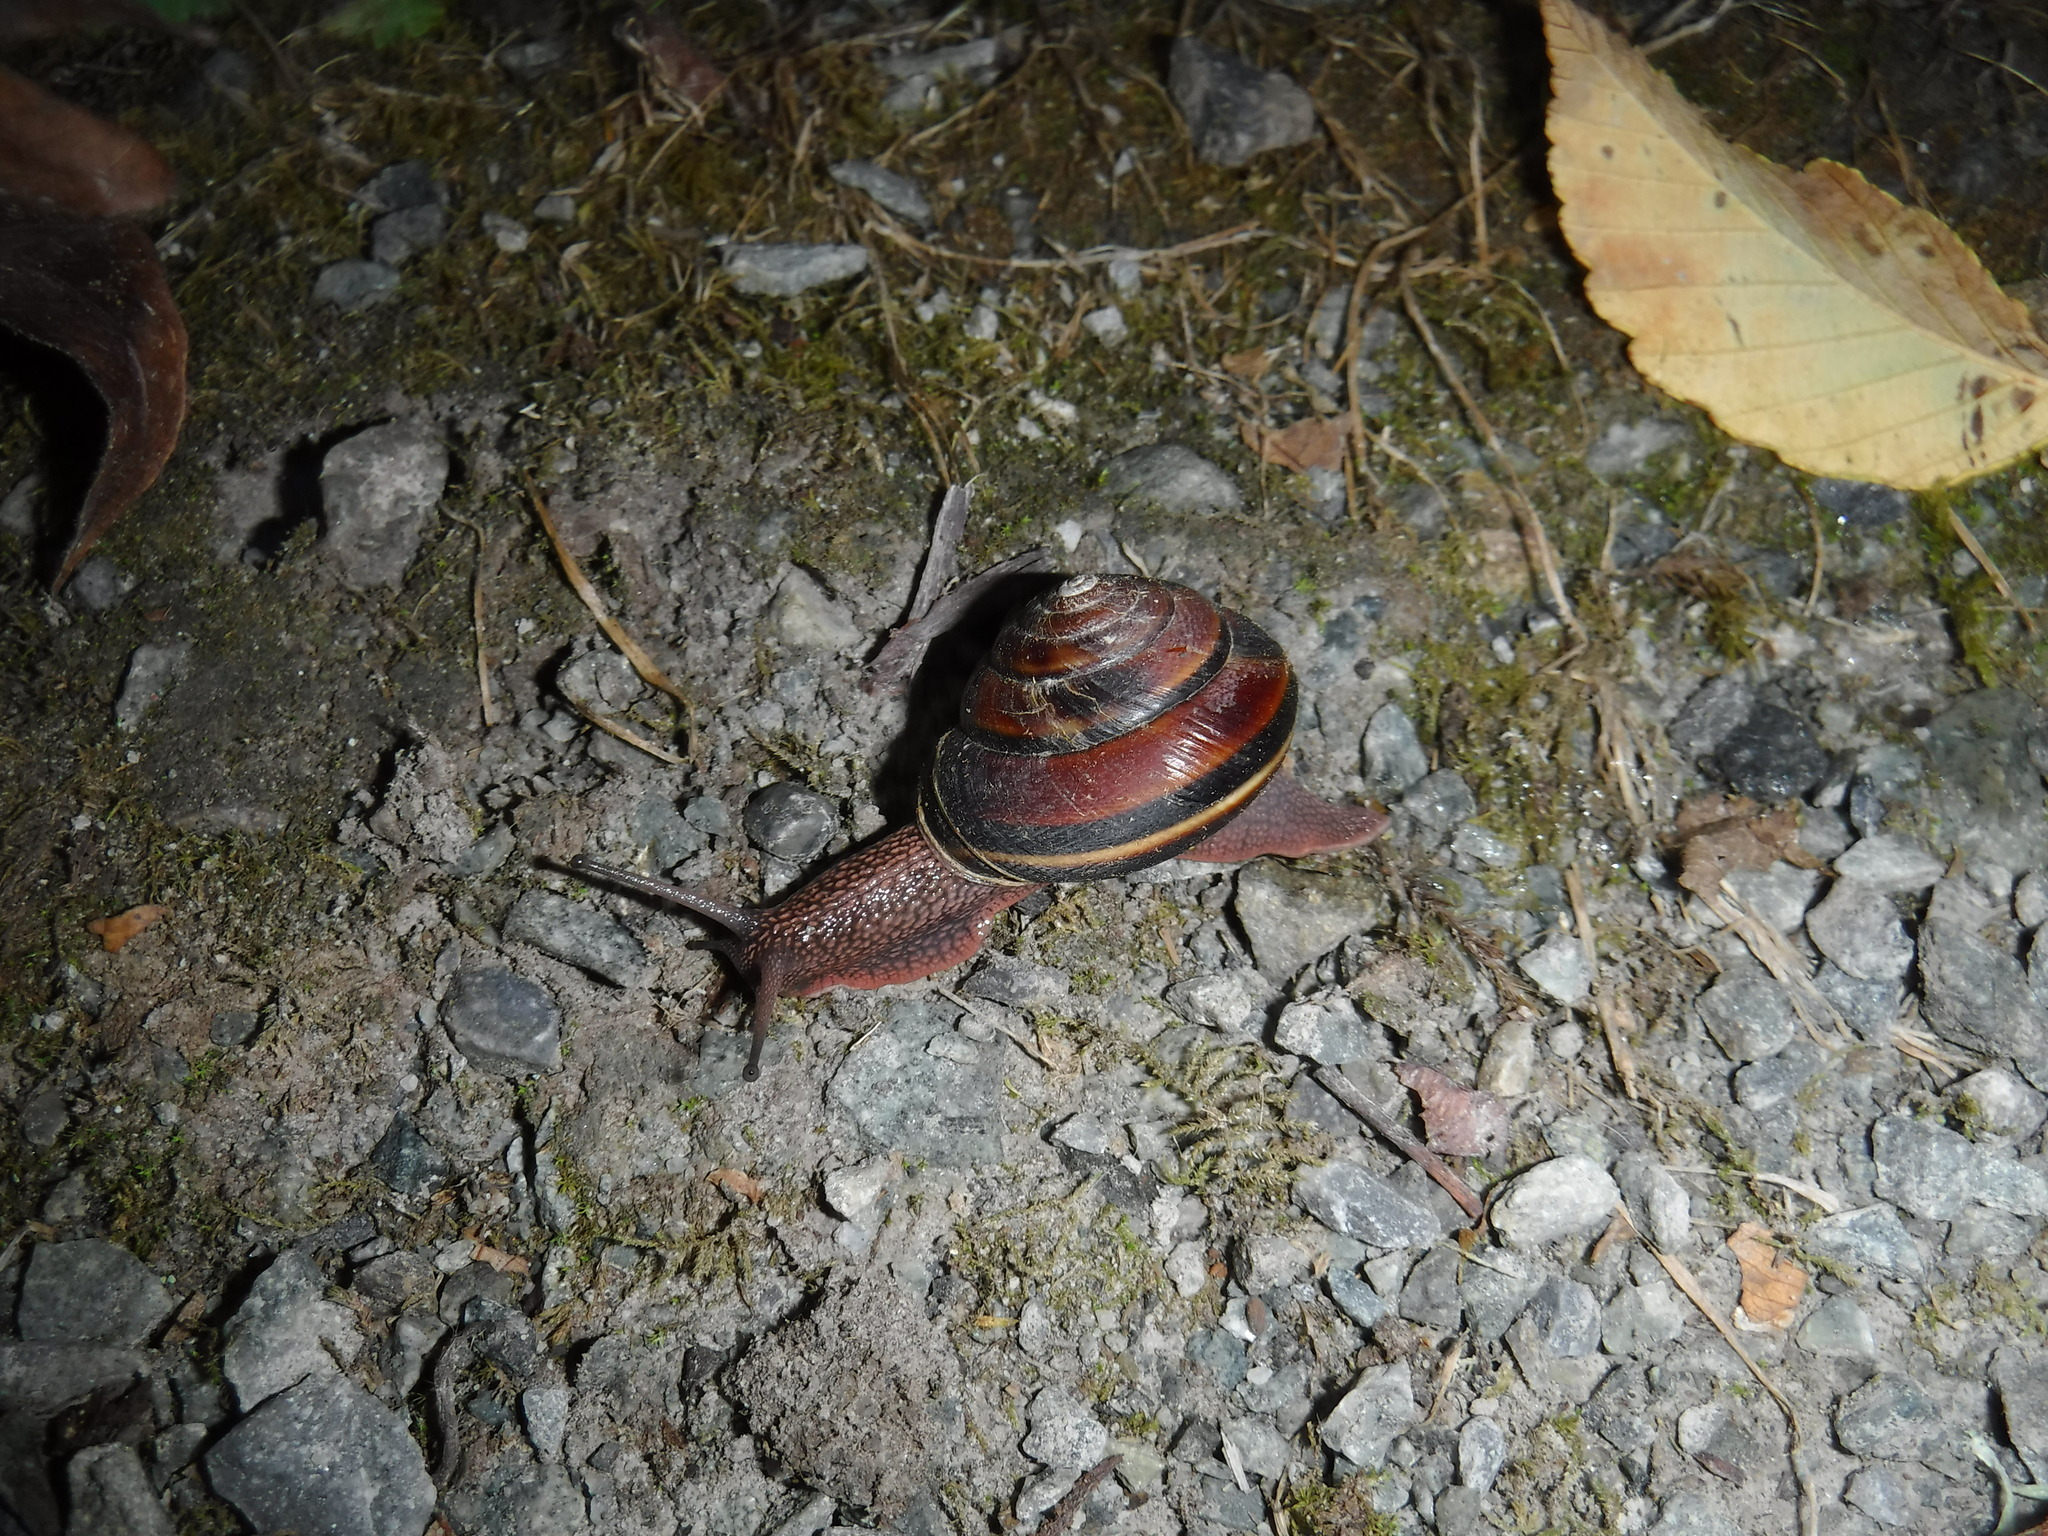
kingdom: Animalia
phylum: Mollusca
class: Gastropoda
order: Stylommatophora
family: Xanthonychidae
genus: Monadenia
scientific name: Monadenia fidelis
